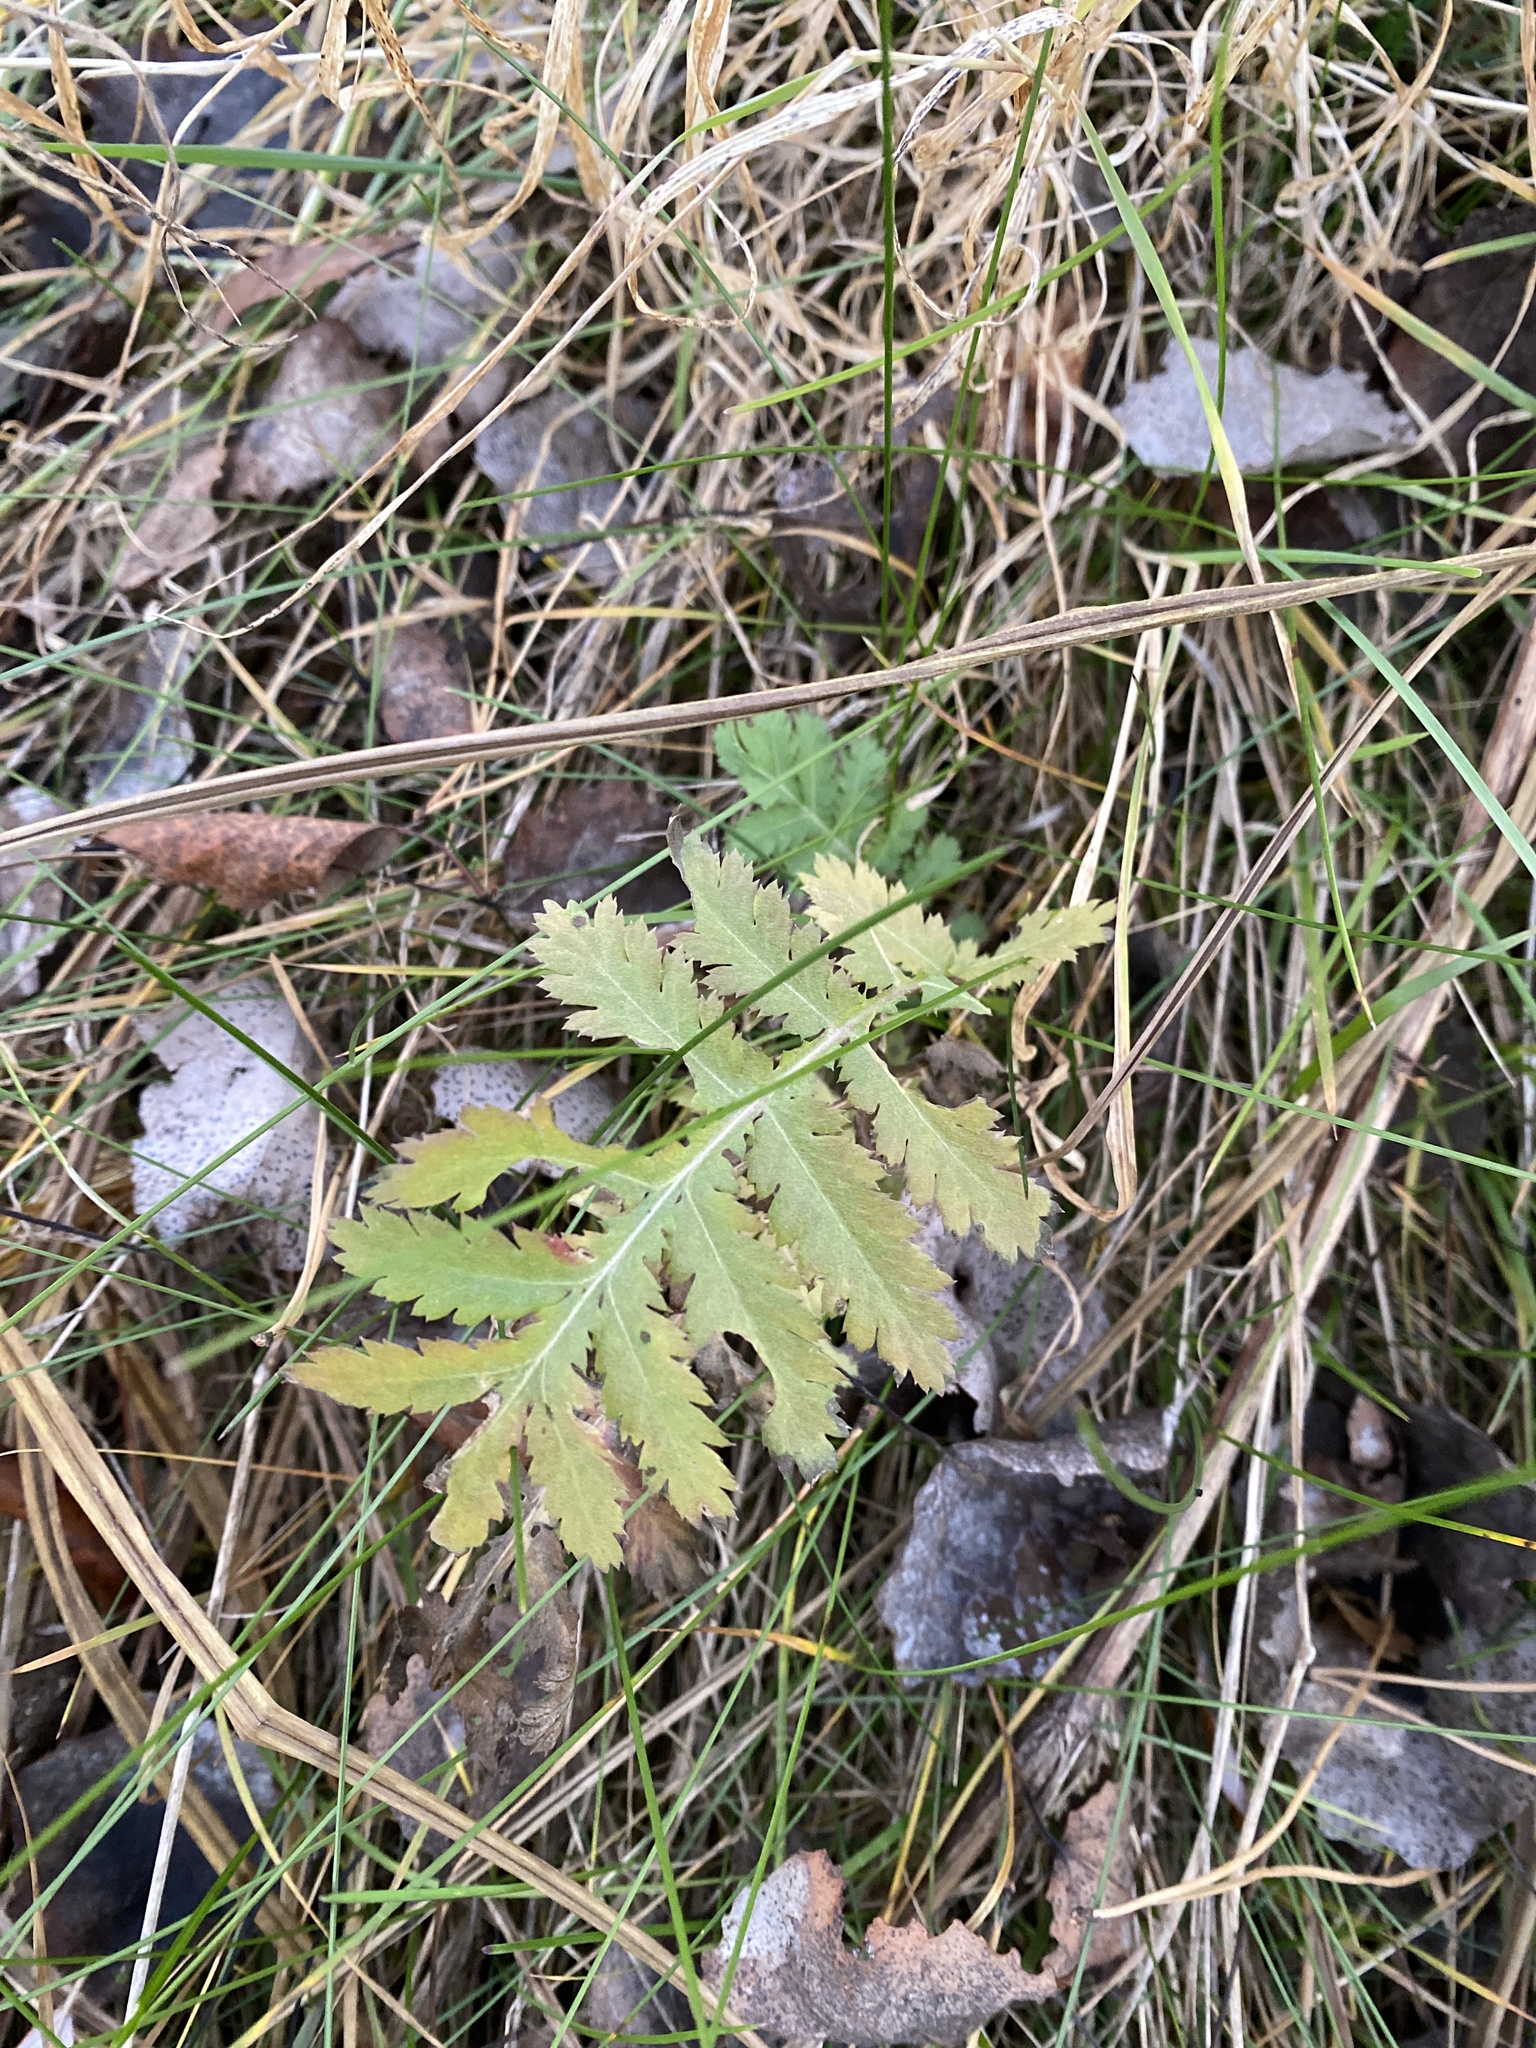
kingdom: Plantae
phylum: Tracheophyta
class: Magnoliopsida
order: Asterales
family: Asteraceae
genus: Tanacetum
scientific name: Tanacetum vulgare
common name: Common tansy
